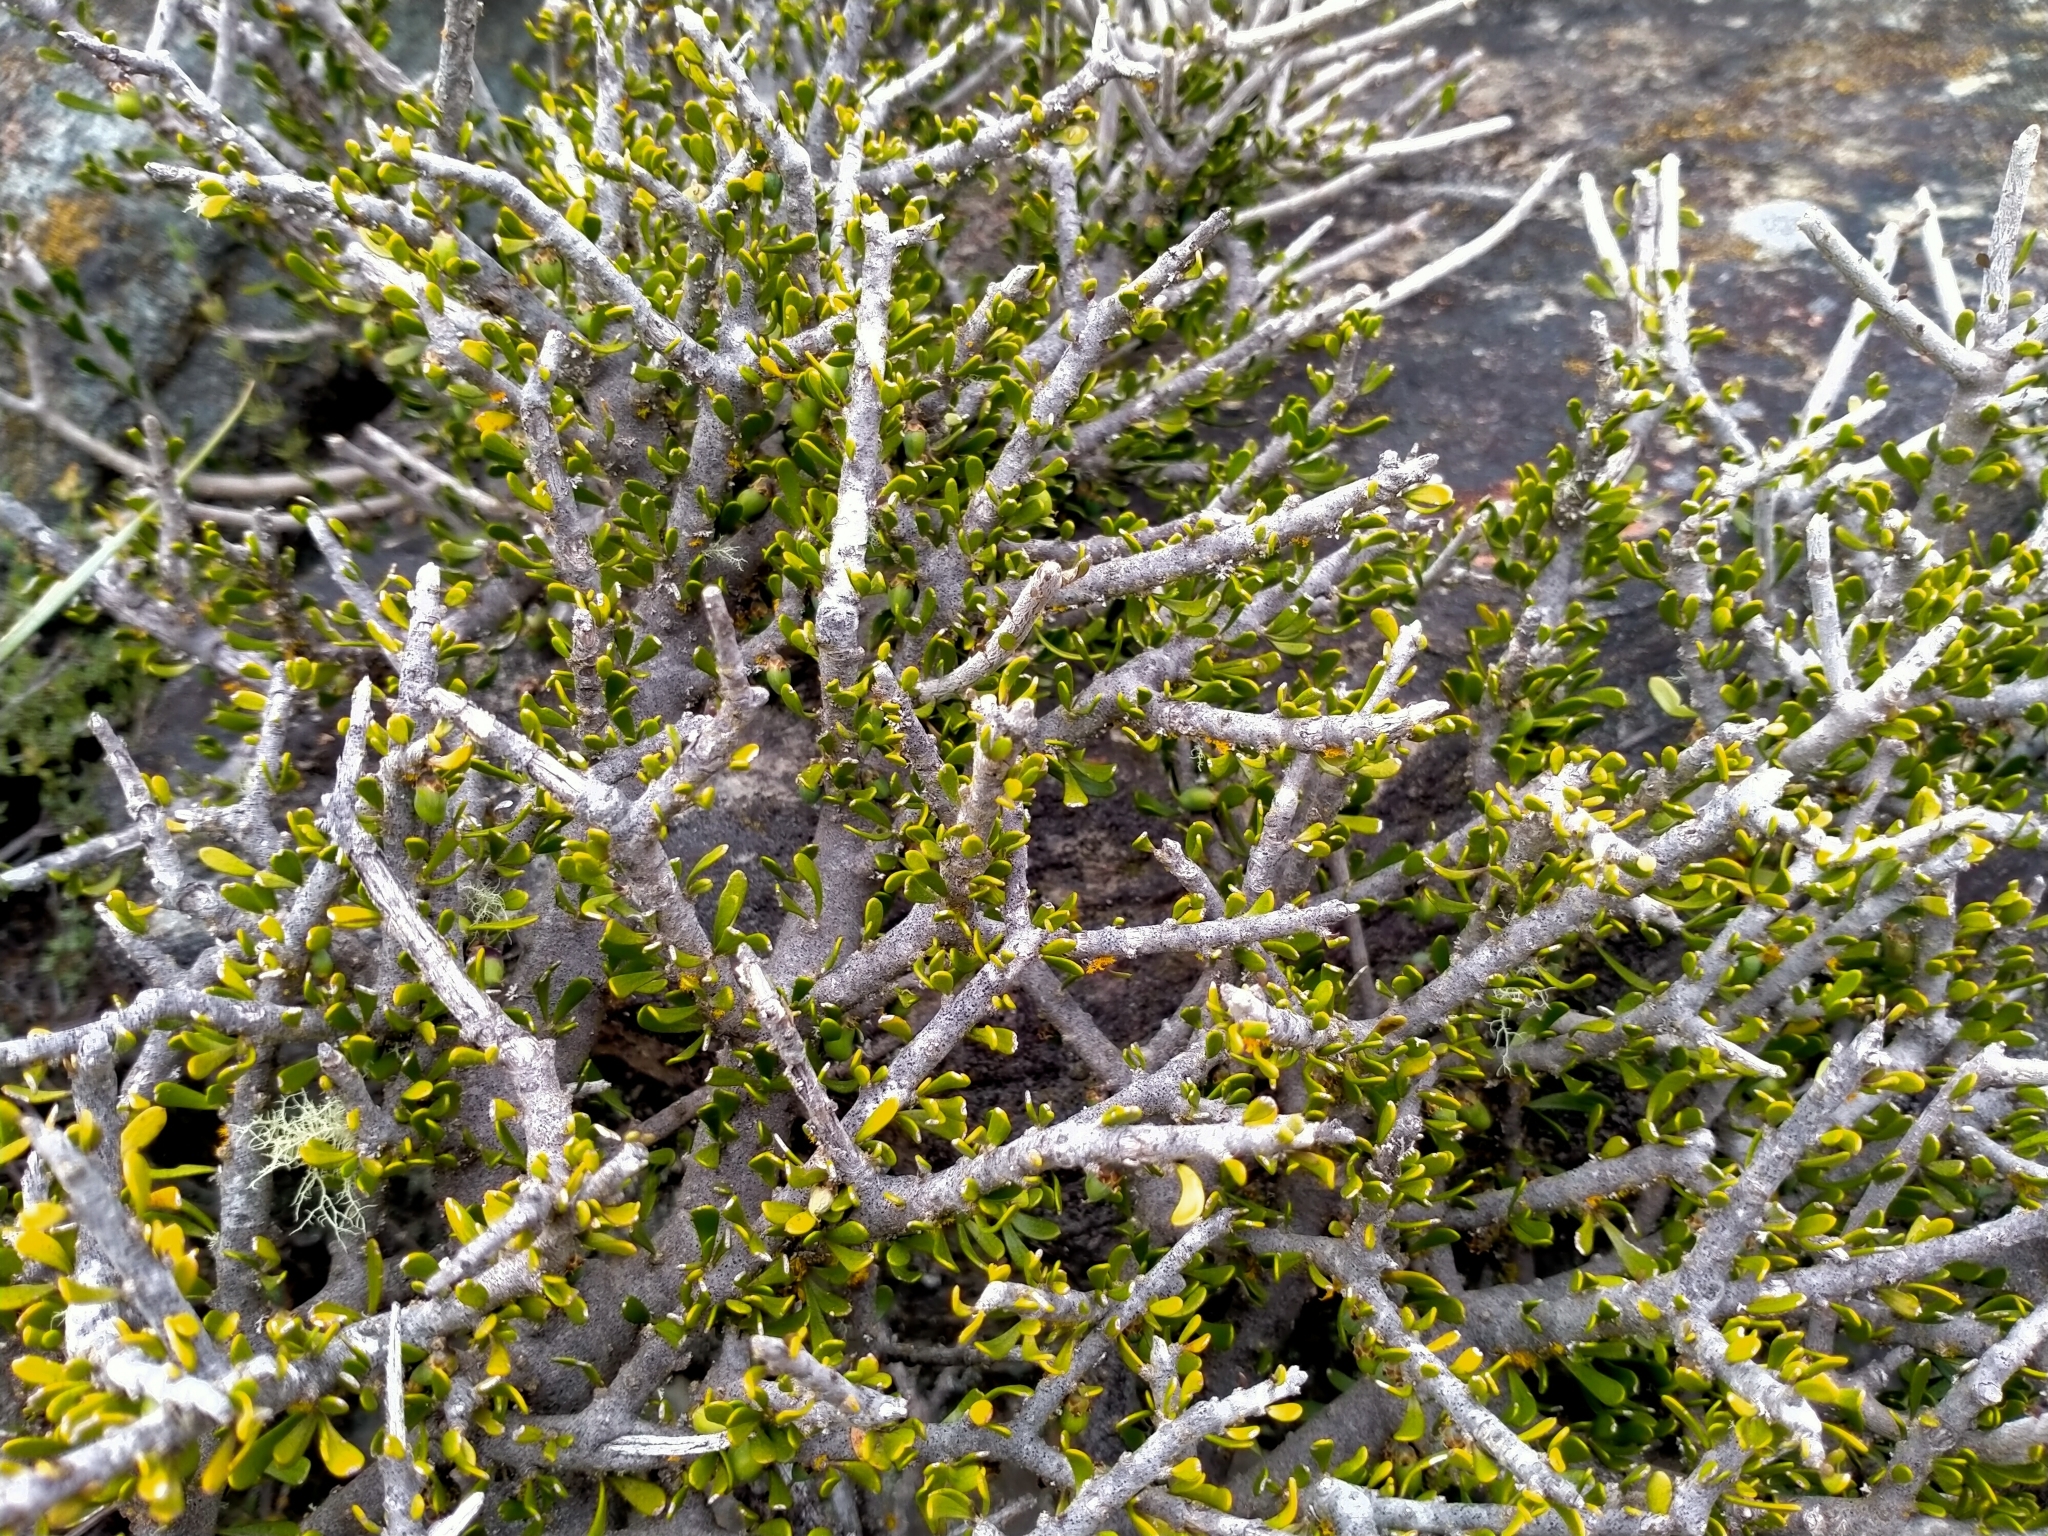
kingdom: Plantae
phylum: Tracheophyta
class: Magnoliopsida
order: Malpighiales
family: Violaceae
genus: Melicytus
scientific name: Melicytus alpinus
